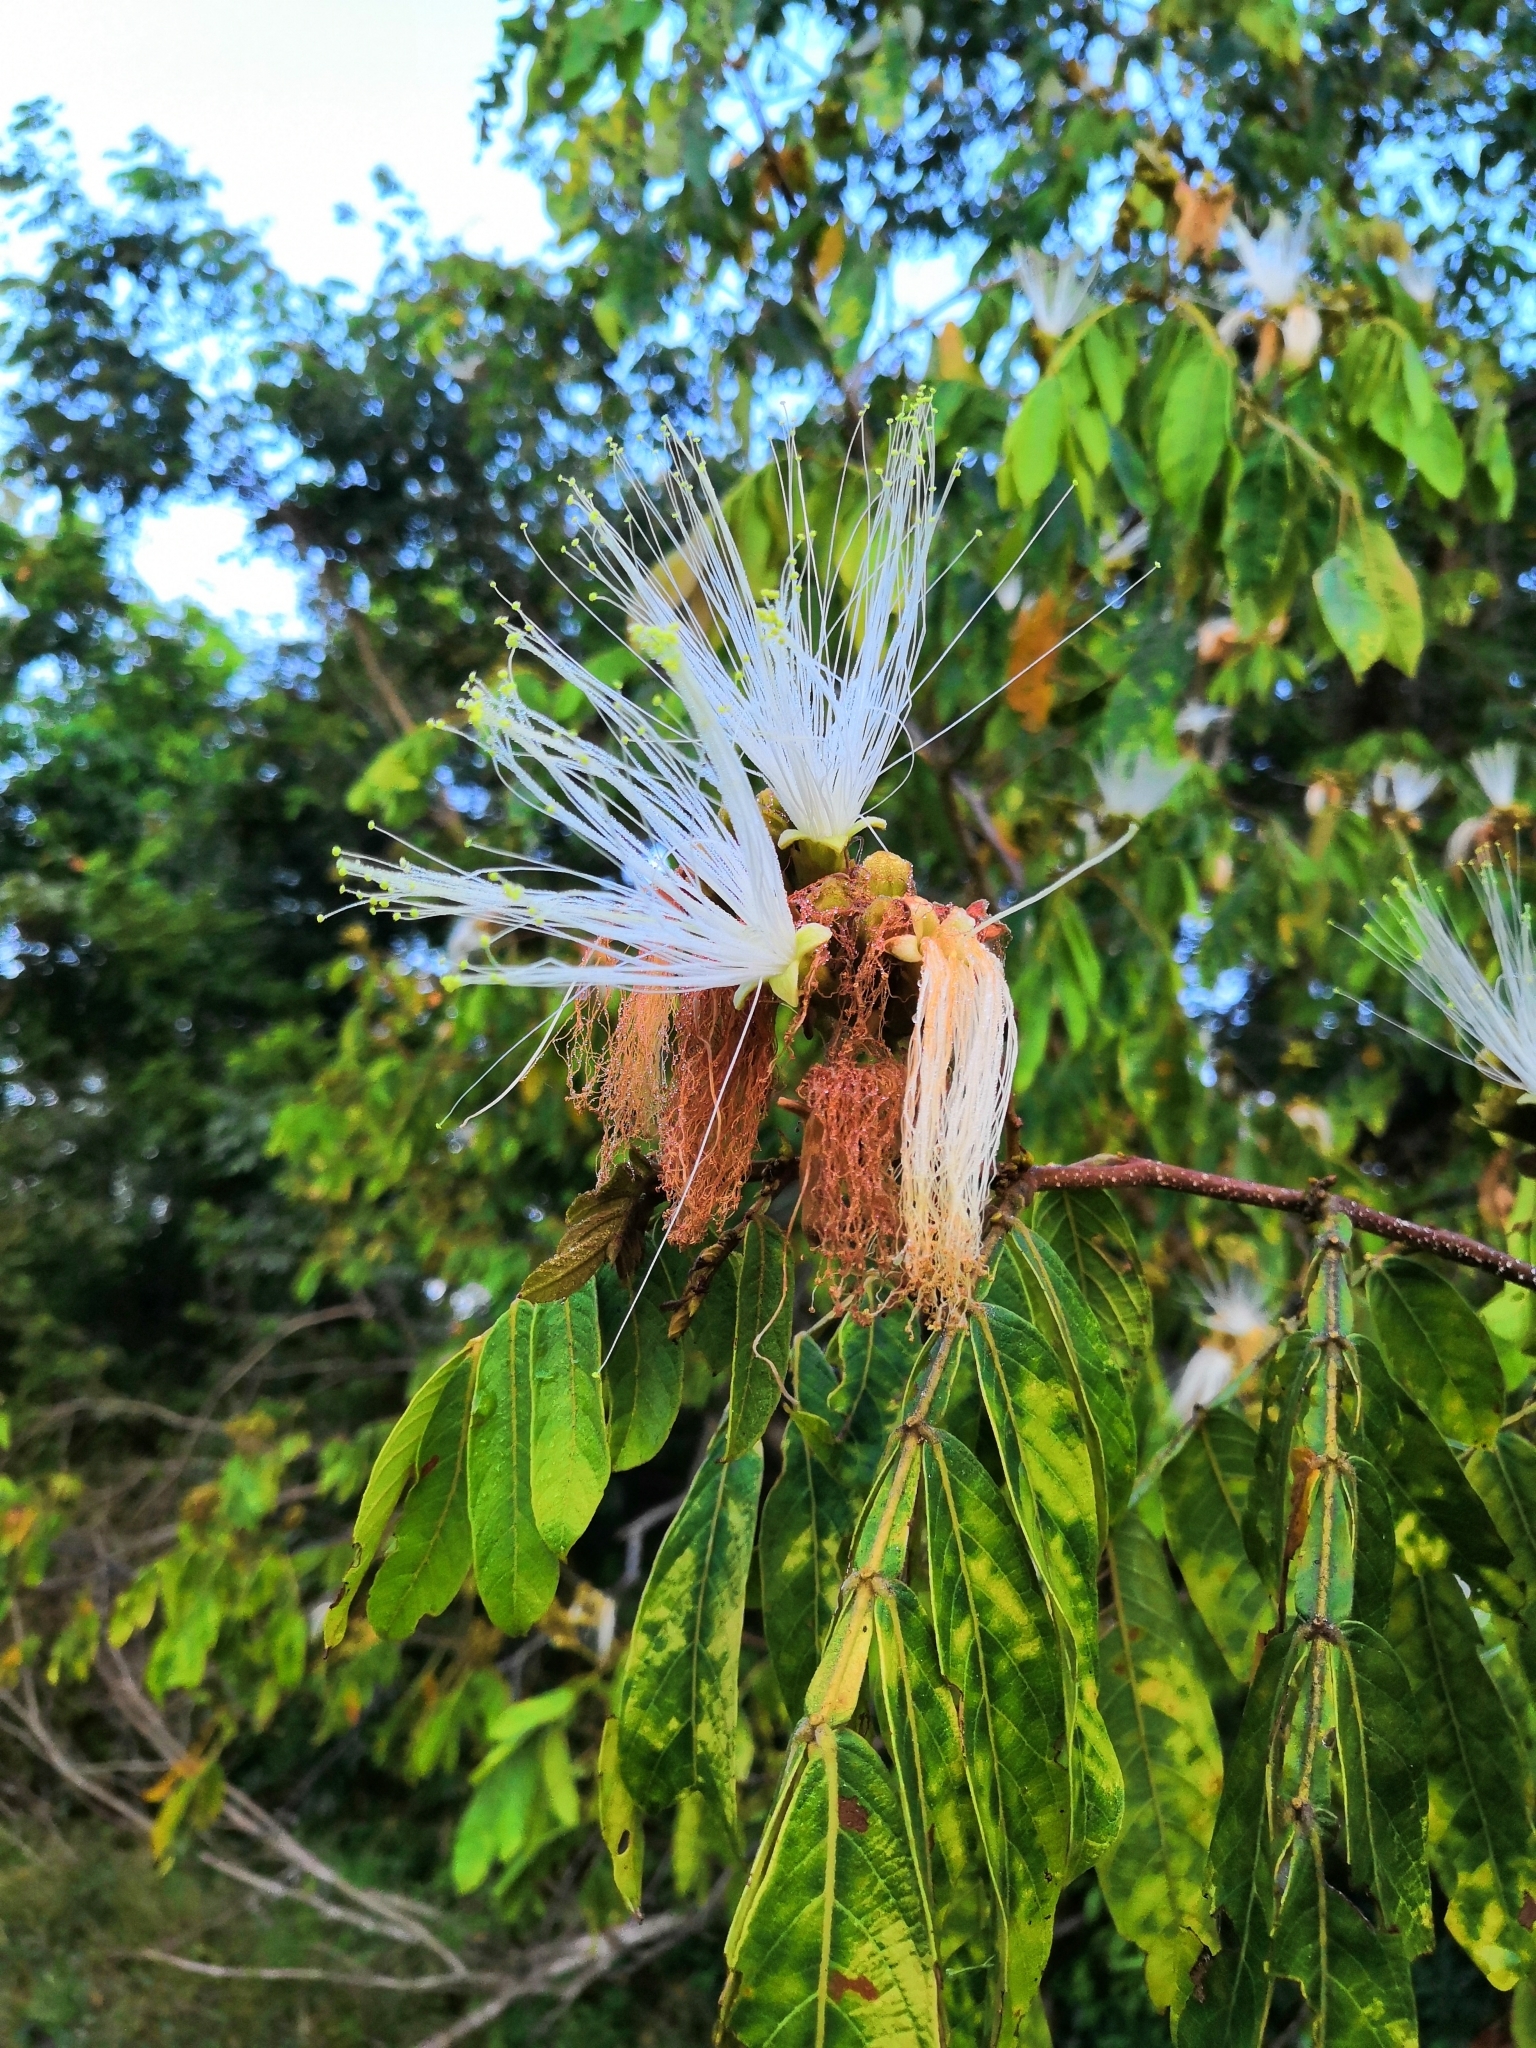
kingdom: Plantae
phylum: Tracheophyta
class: Magnoliopsida
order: Fabales
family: Fabaceae
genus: Inga
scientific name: Inga vera
